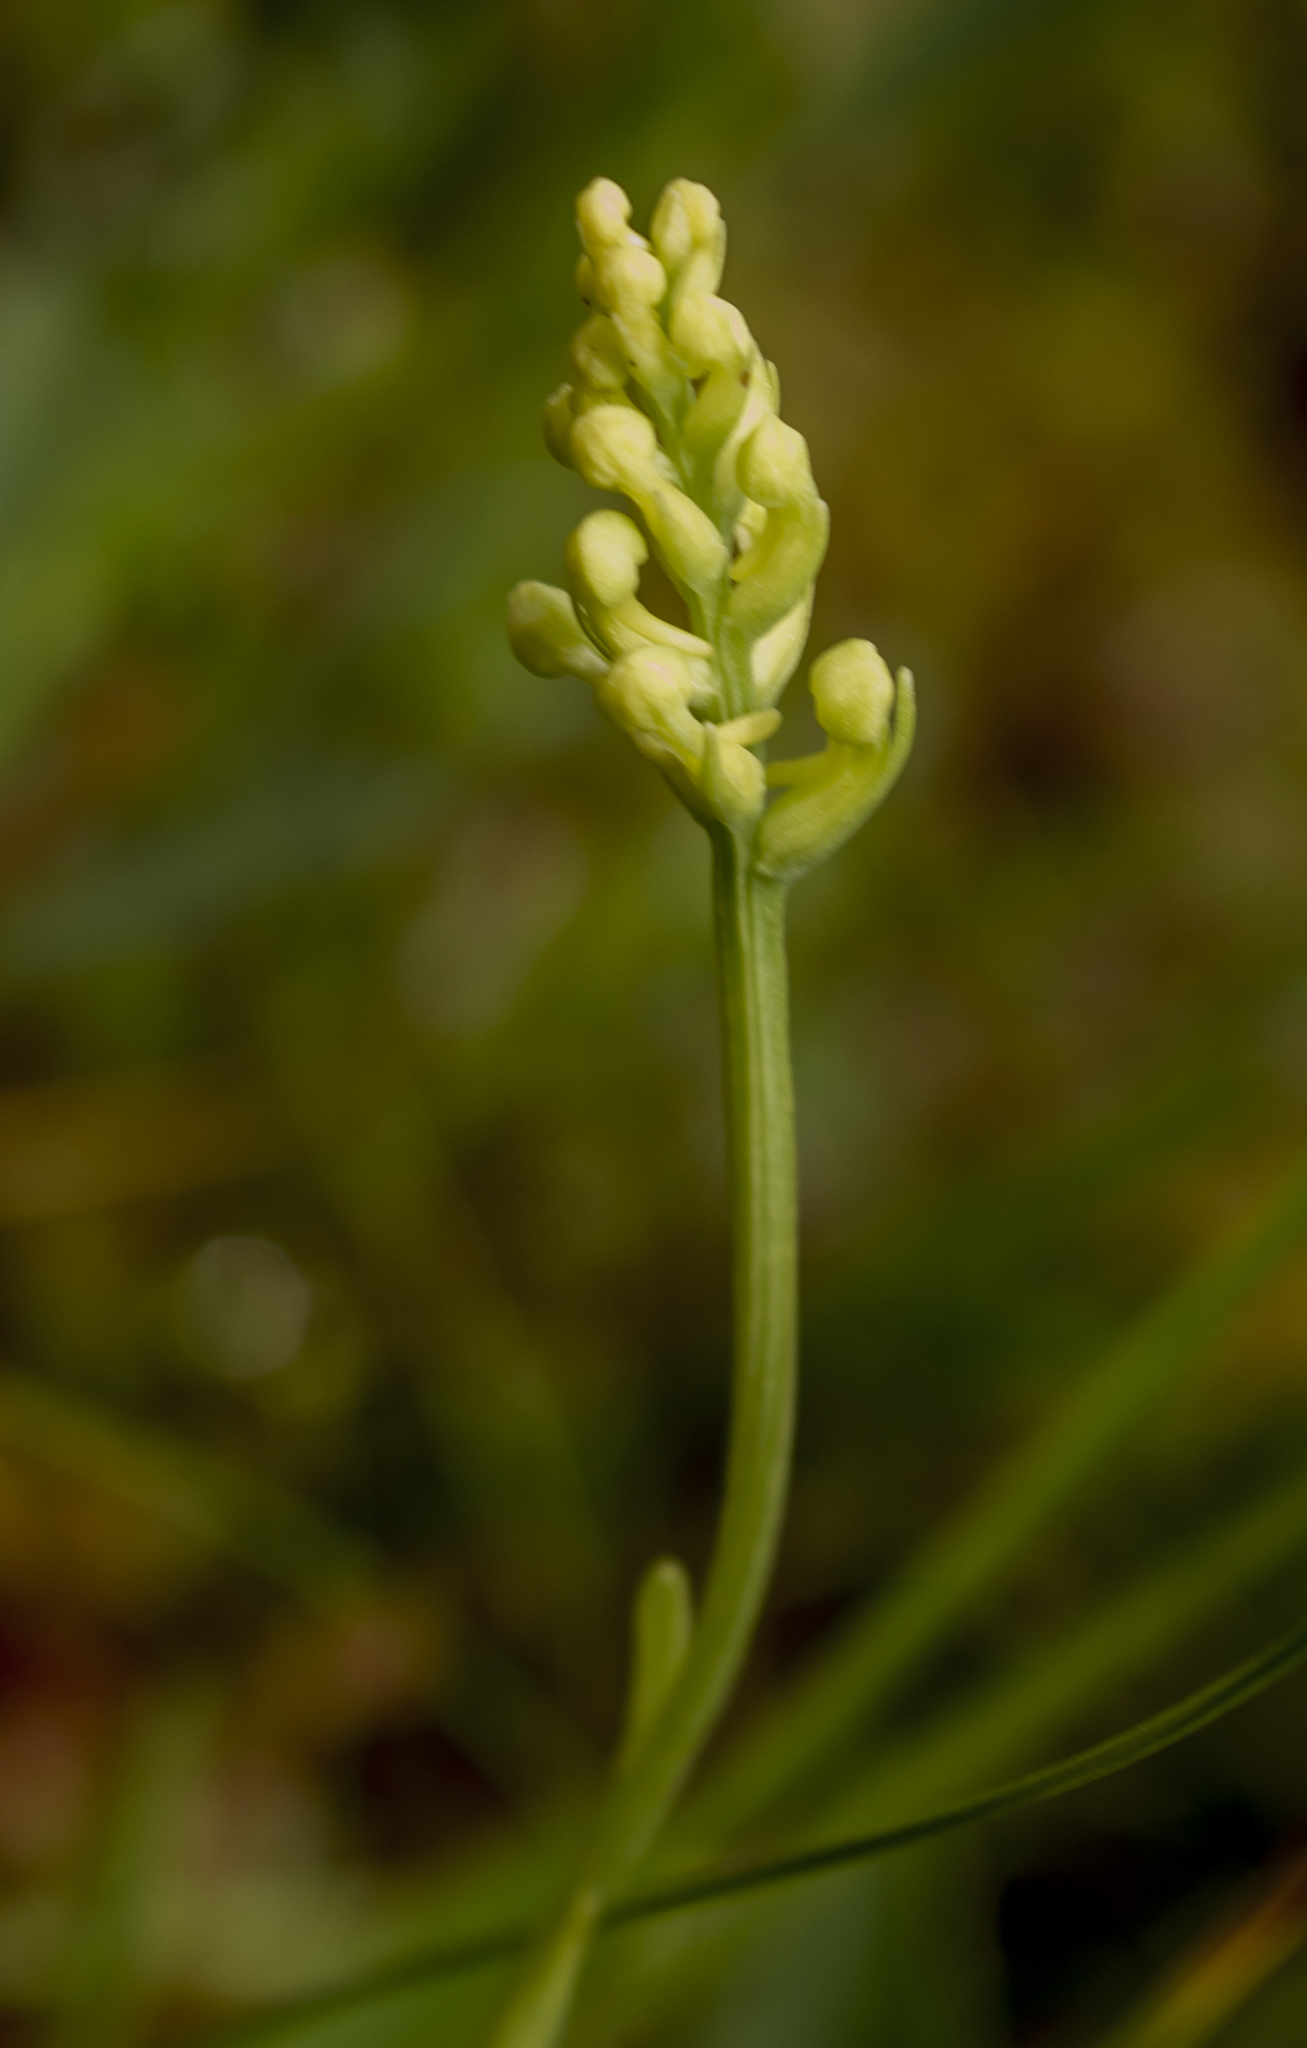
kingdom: Plantae
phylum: Tracheophyta
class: Liliopsida
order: Asparagales
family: Orchidaceae
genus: Platanthera
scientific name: Platanthera clavellata
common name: Club-spur orchid
